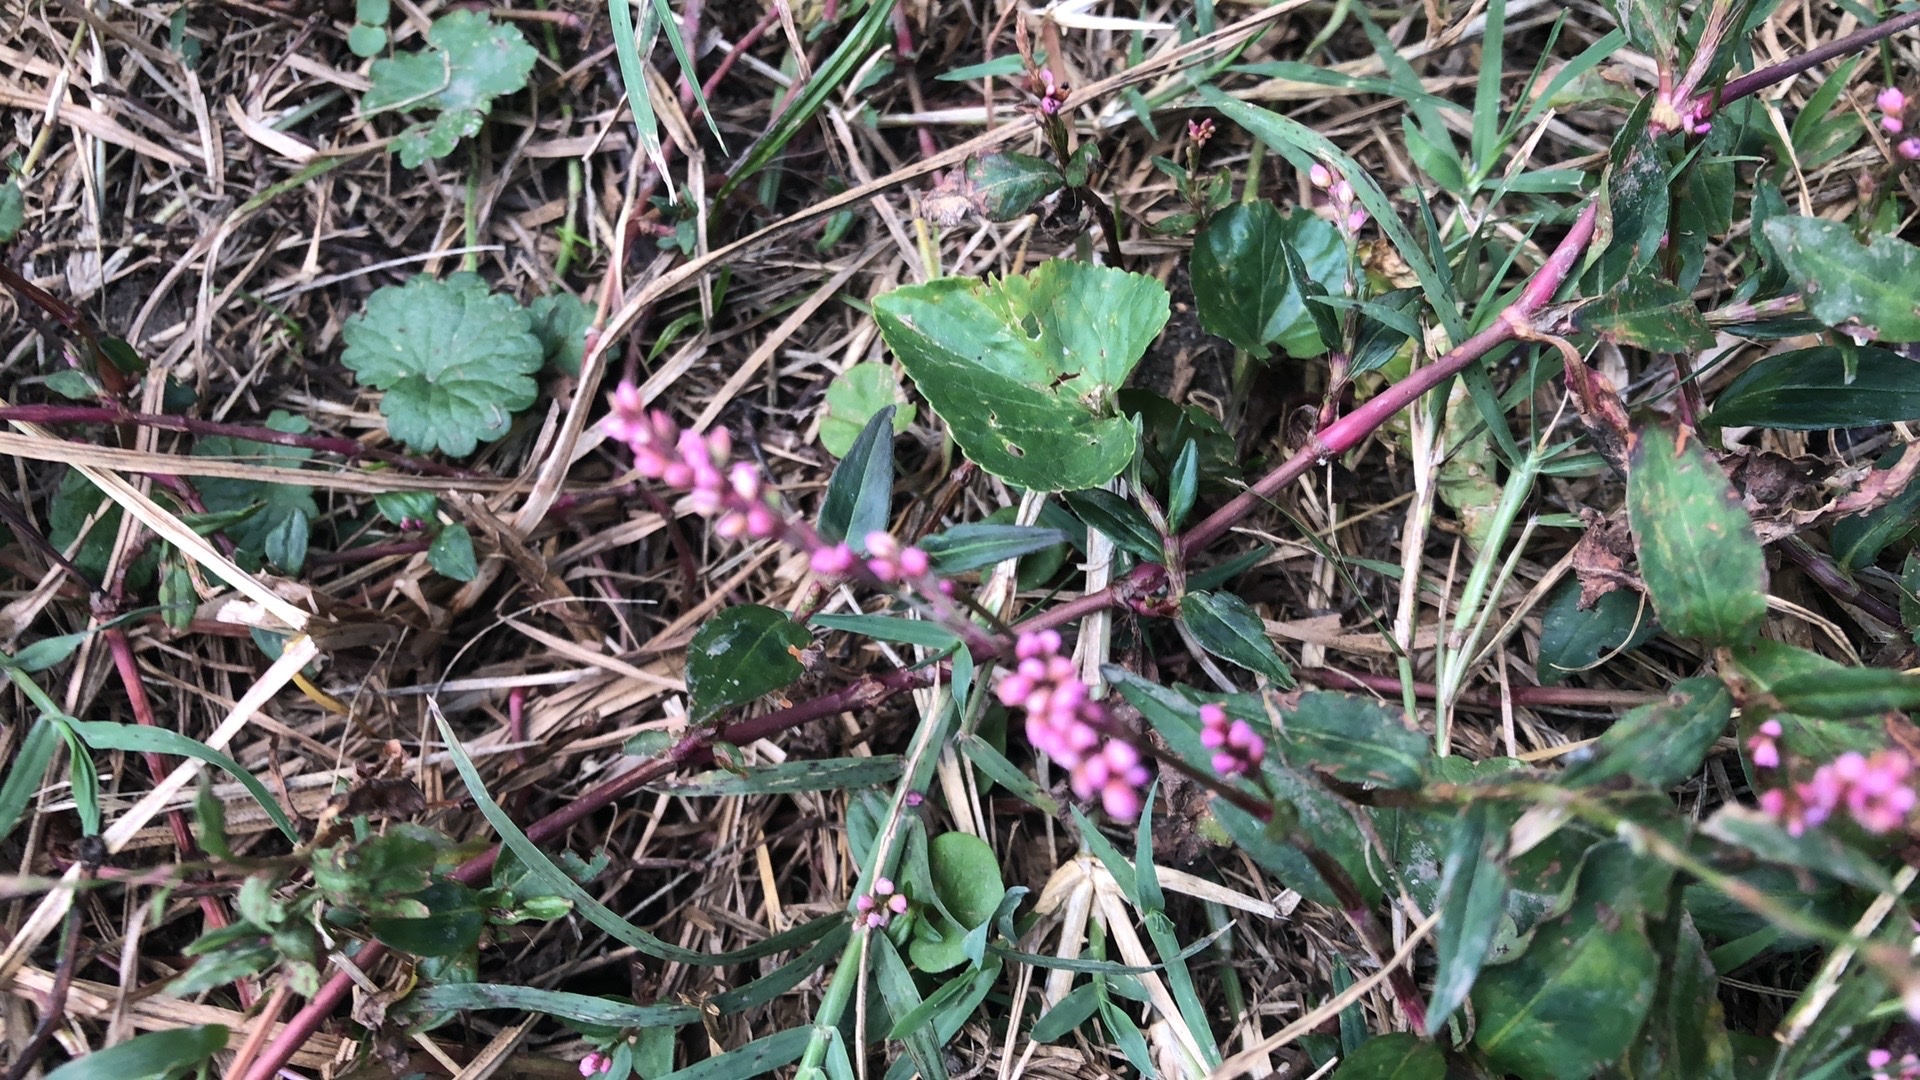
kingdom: Plantae
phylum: Tracheophyta
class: Magnoliopsida
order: Caryophyllales
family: Polygonaceae
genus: Persicaria
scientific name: Persicaria longiseta
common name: Bristly lady's-thumb
